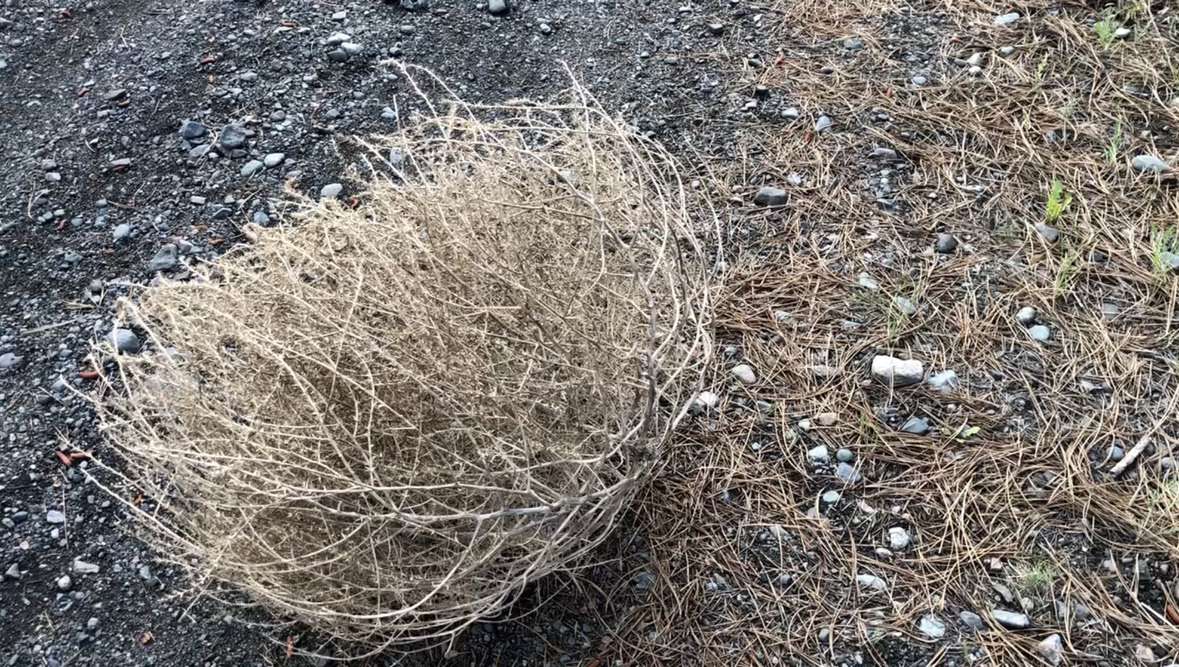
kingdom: Plantae
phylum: Tracheophyta
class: Magnoliopsida
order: Caryophyllales
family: Amaranthaceae
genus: Salsola
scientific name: Salsola tragus
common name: Prickly russian thistle
